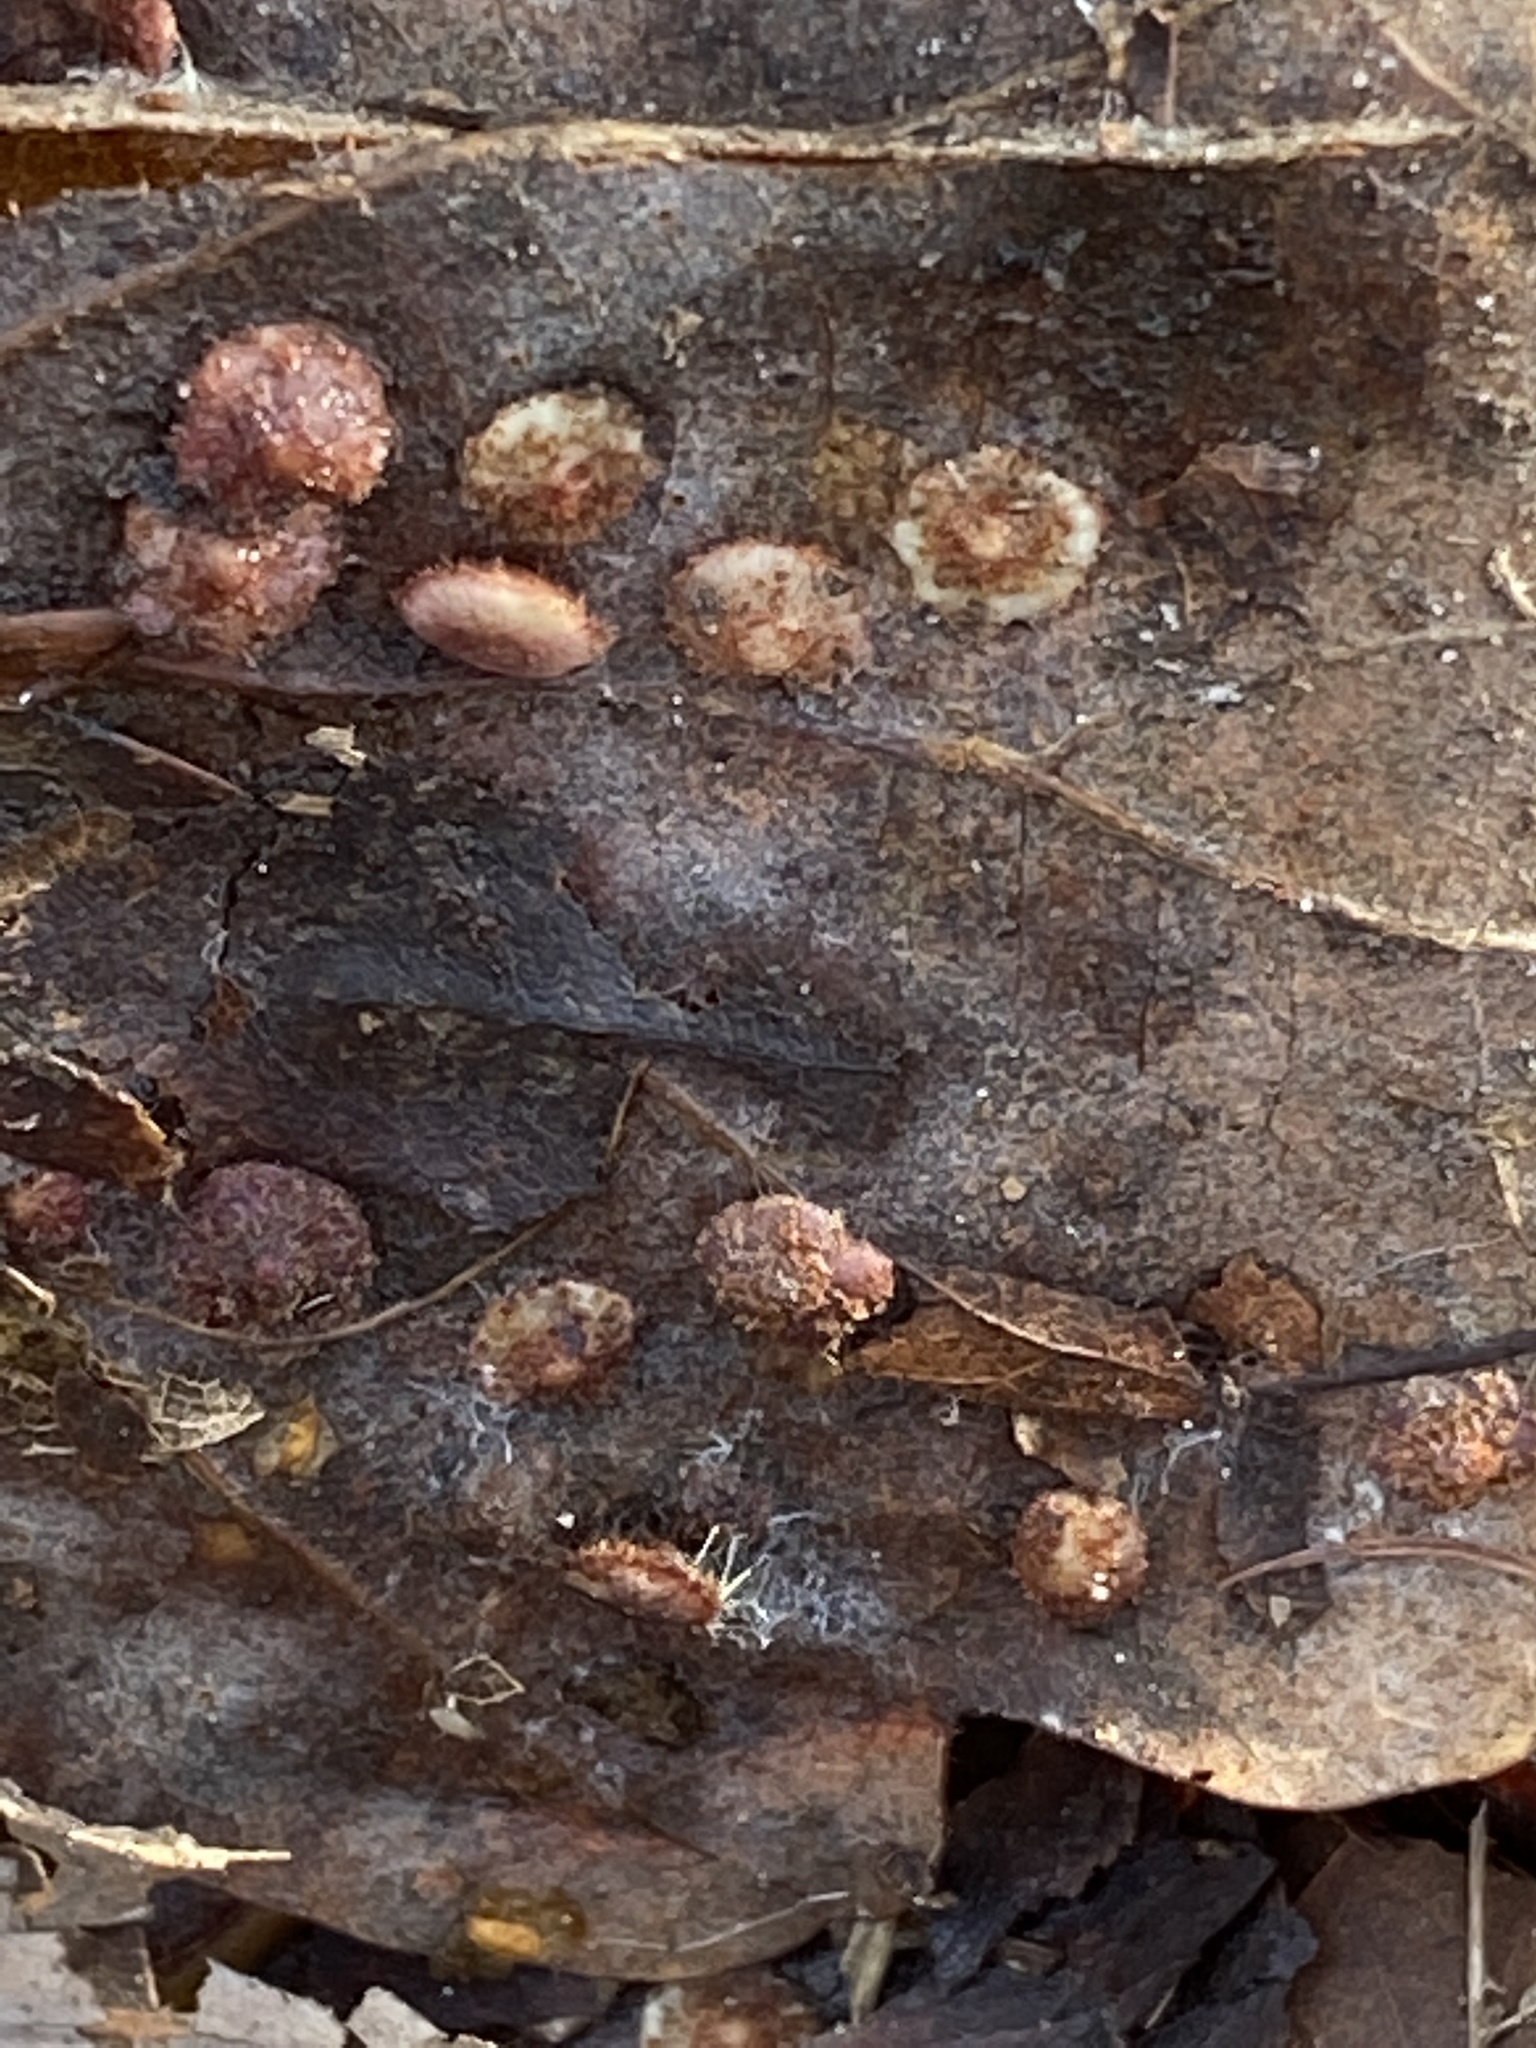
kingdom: Animalia
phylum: Arthropoda
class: Insecta
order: Hymenoptera
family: Cynipidae
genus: Neuroterus
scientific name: Neuroterus quercusbaccarum
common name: Common spangle gall
